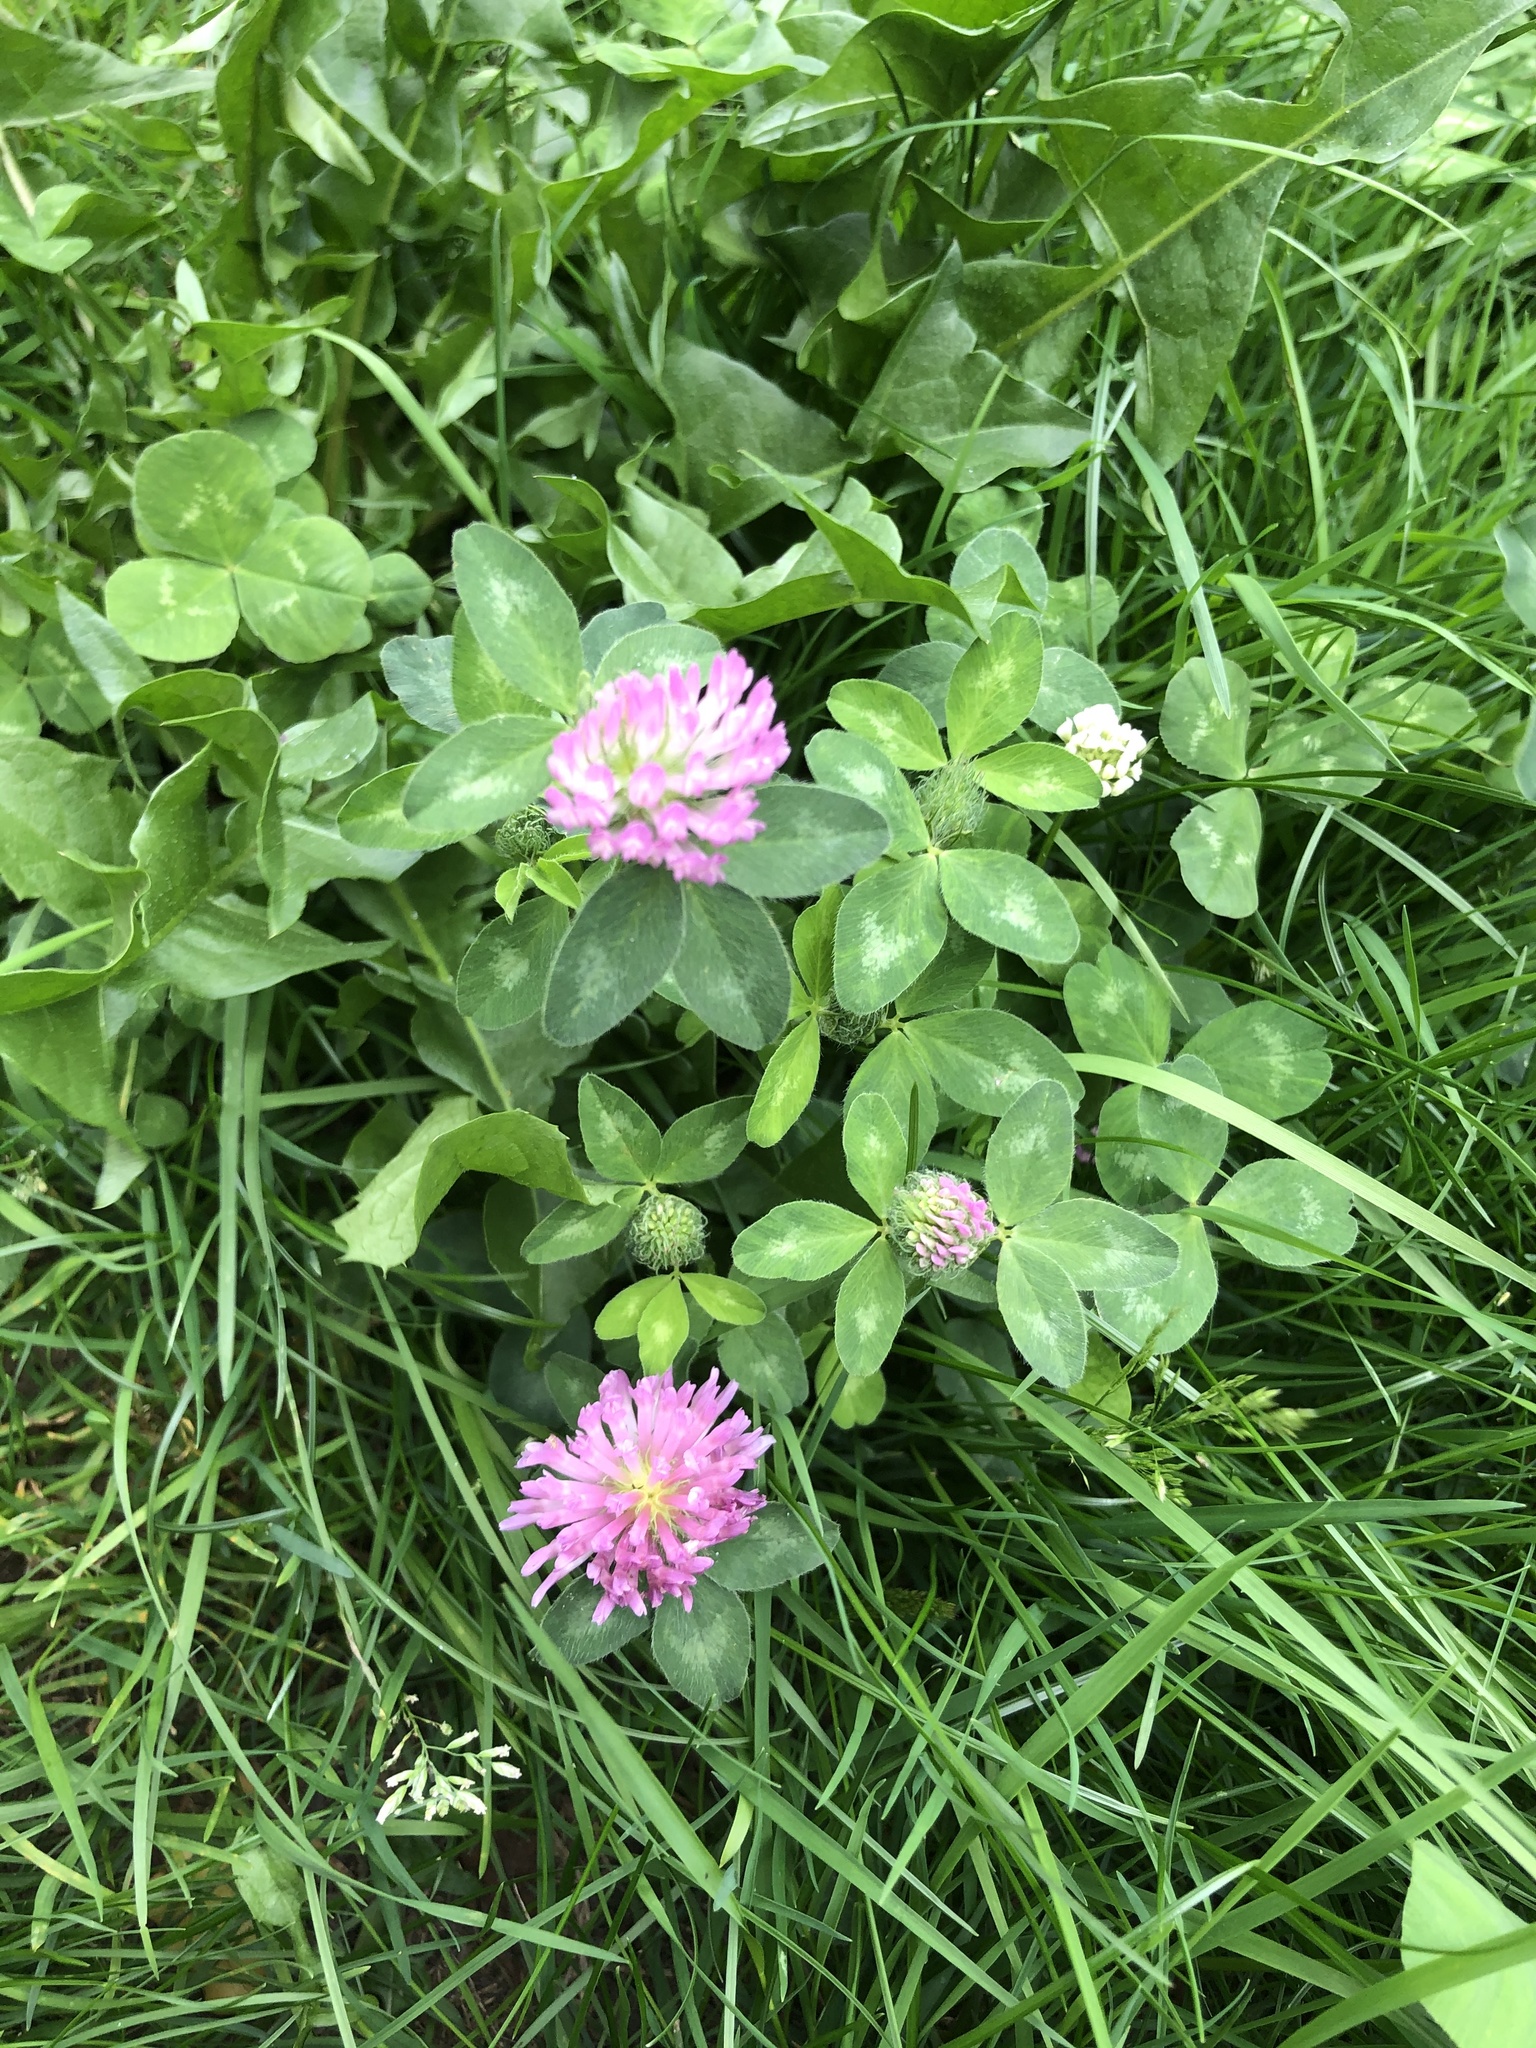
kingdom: Plantae
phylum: Tracheophyta
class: Magnoliopsida
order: Fabales
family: Fabaceae
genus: Trifolium
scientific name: Trifolium pratense
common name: Red clover
